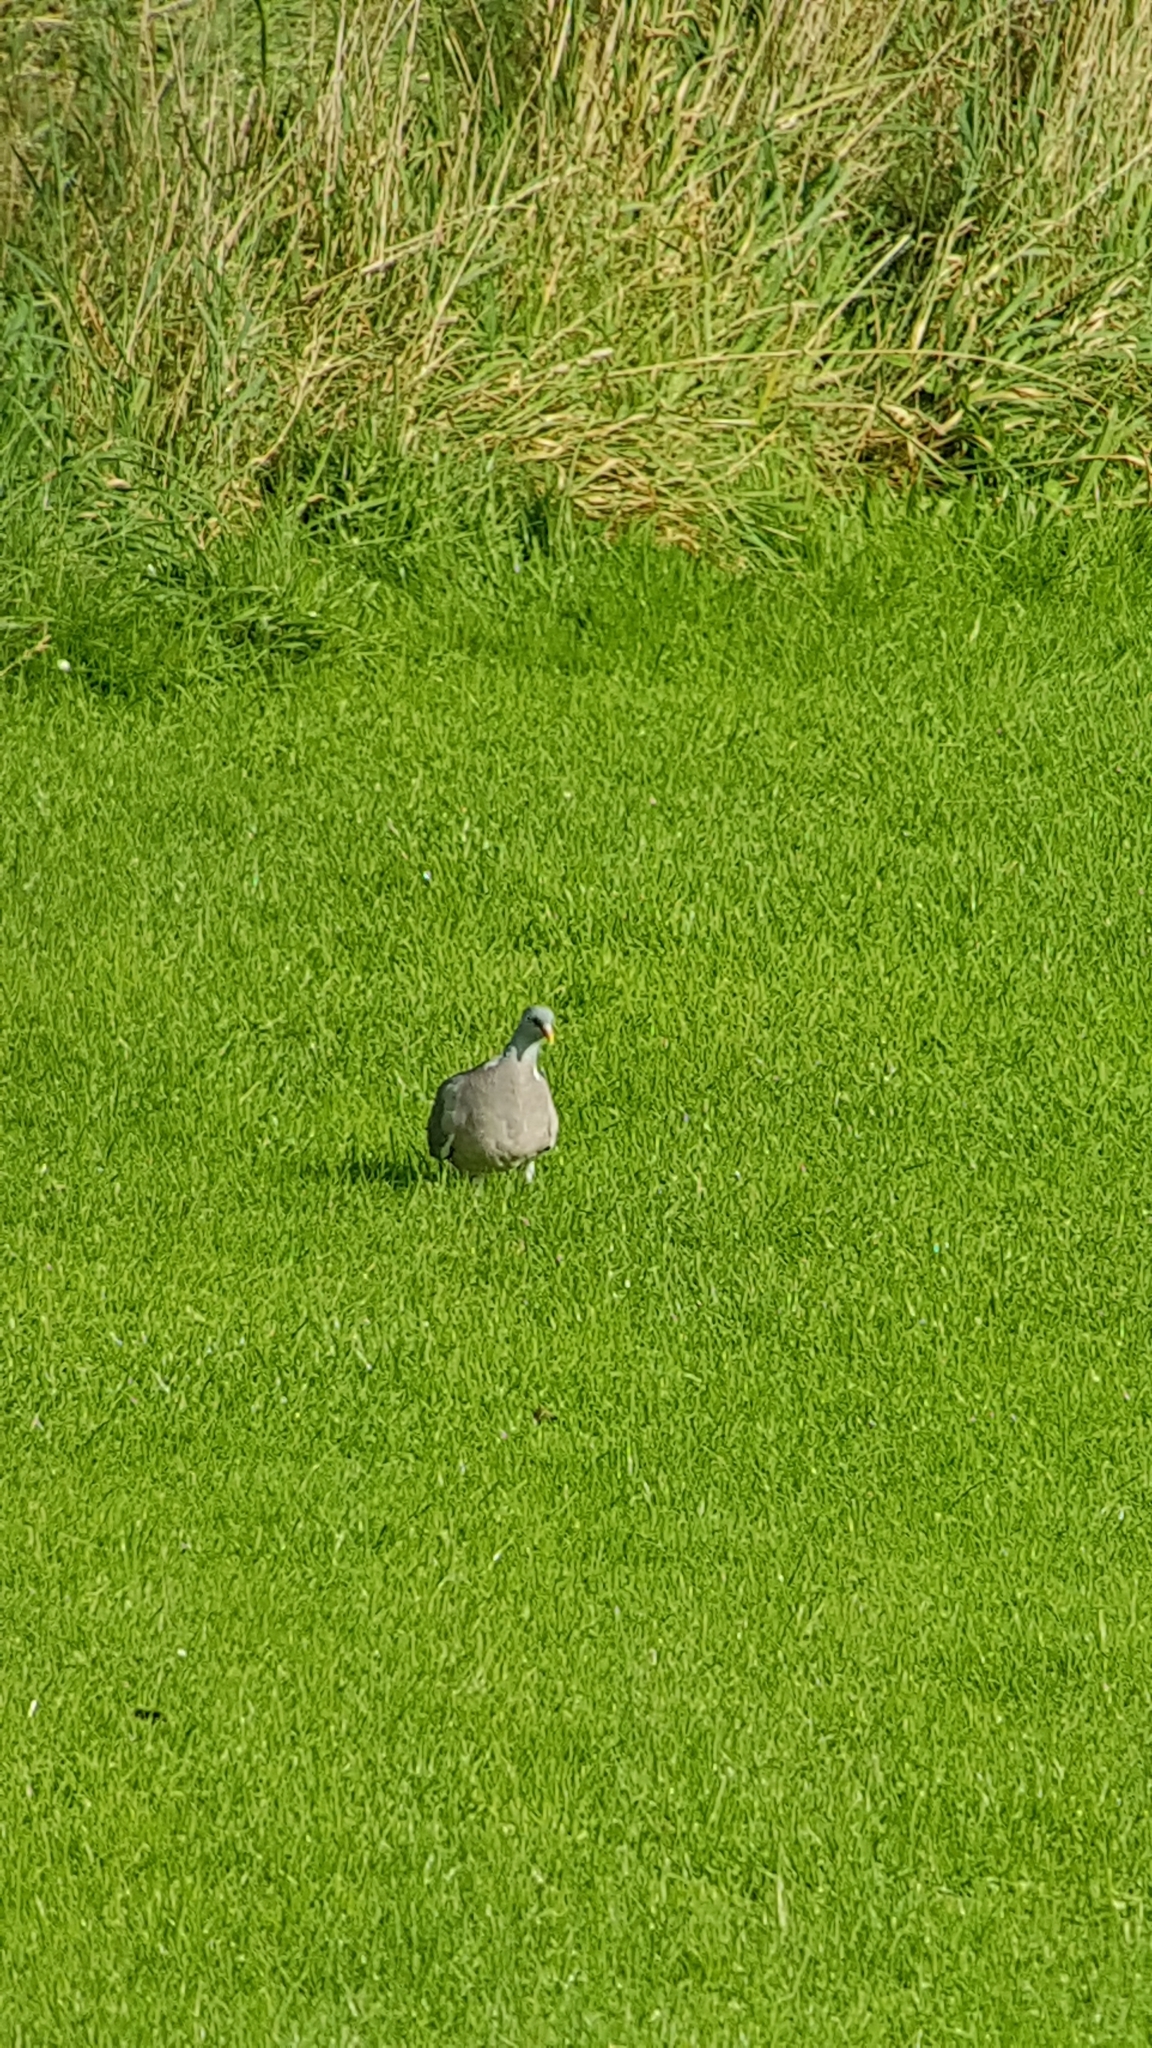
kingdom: Animalia
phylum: Chordata
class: Aves
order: Columbiformes
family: Columbidae
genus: Columba
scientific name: Columba palumbus
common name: Common wood pigeon
